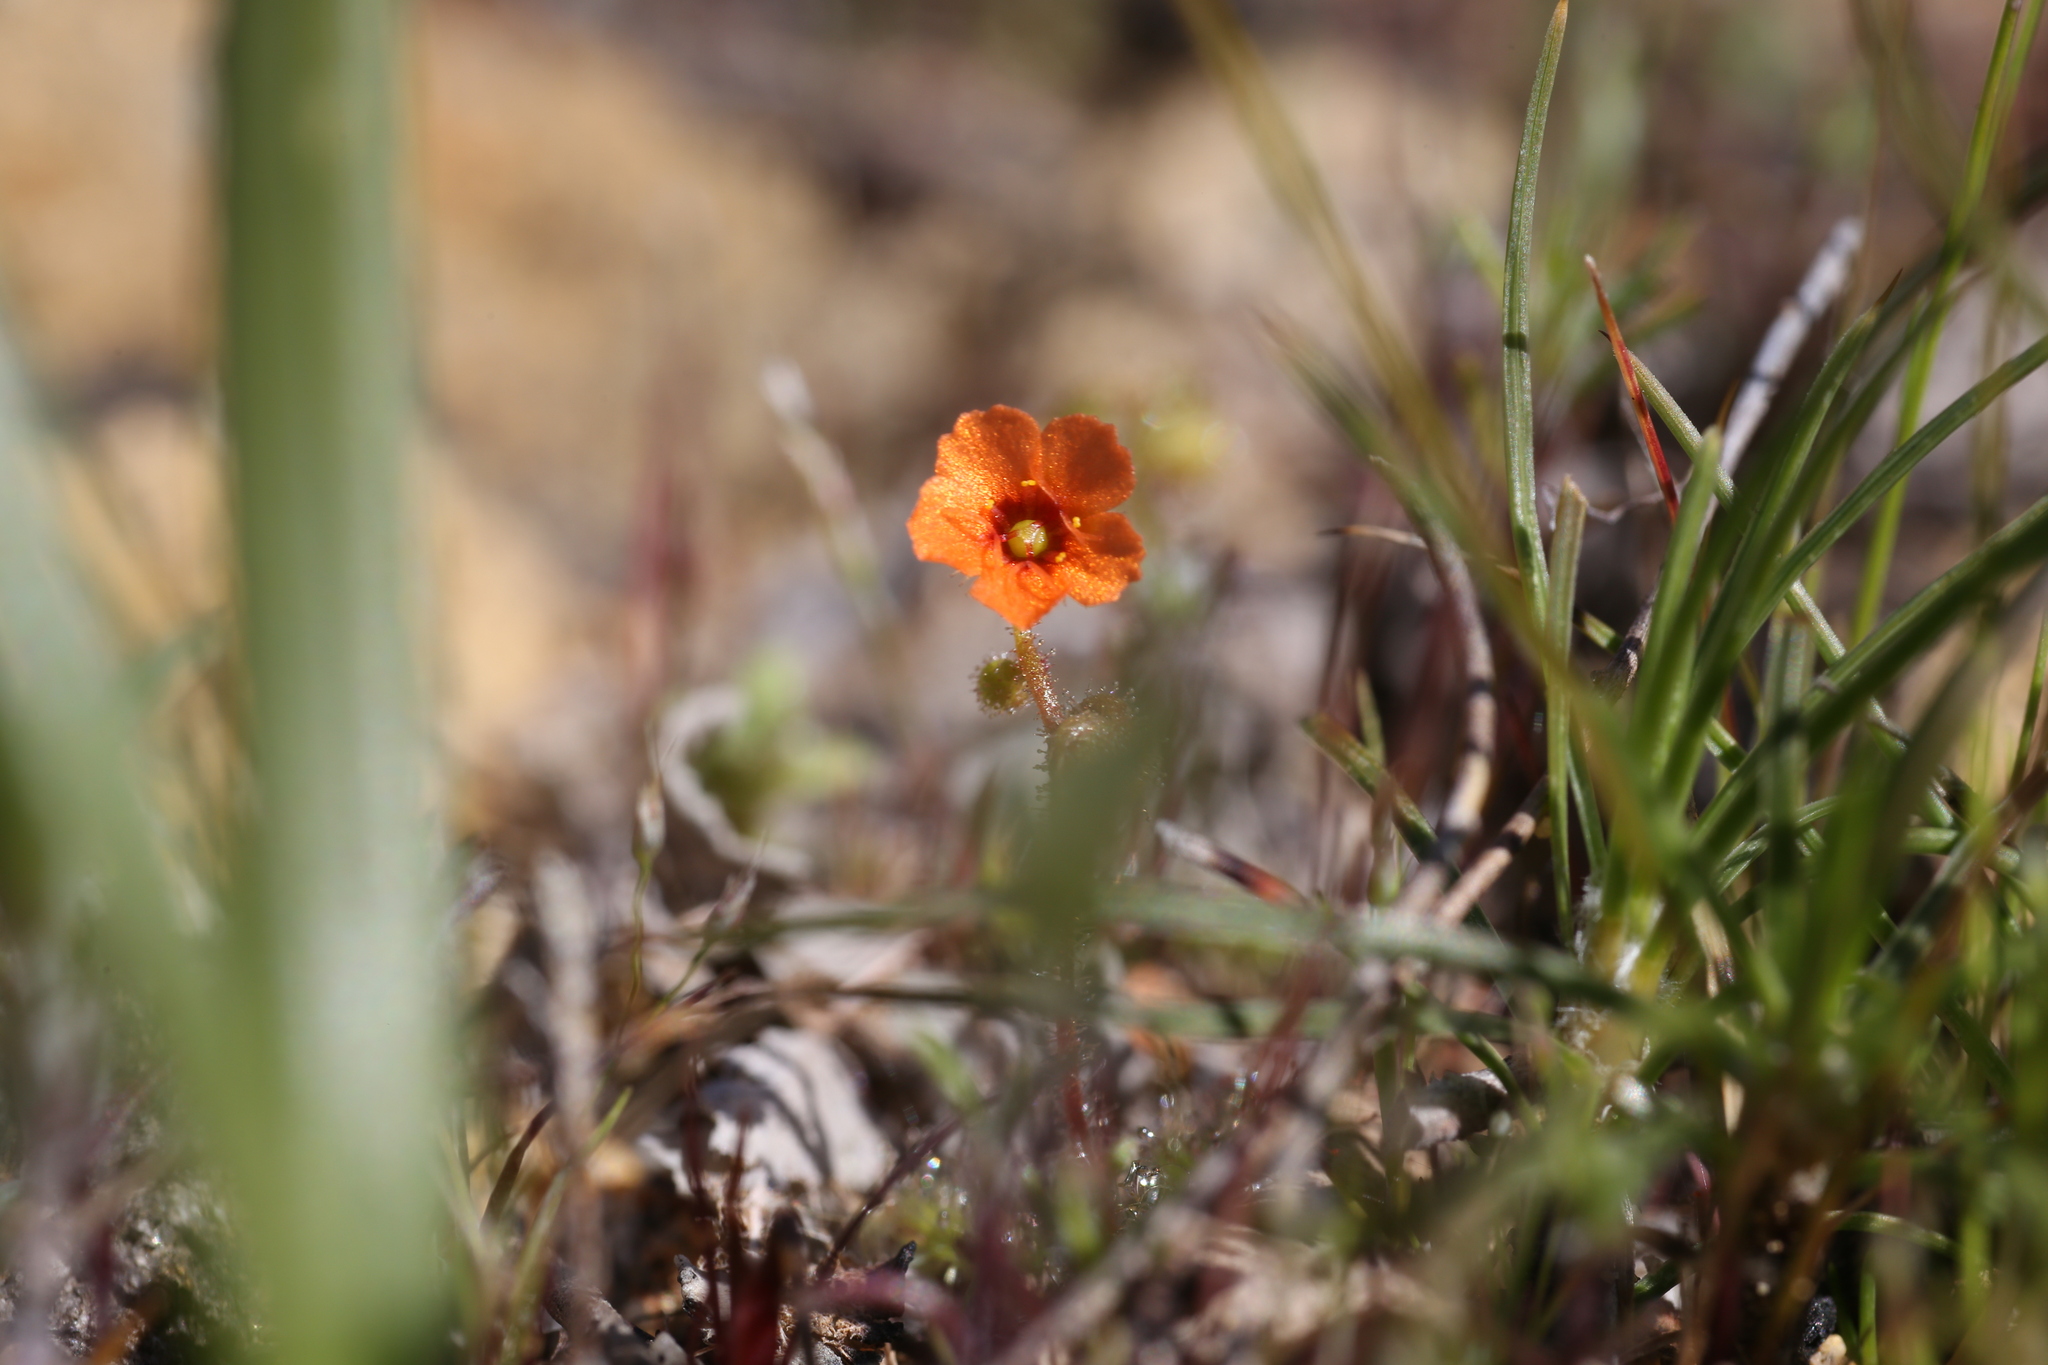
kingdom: Plantae
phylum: Tracheophyta
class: Magnoliopsida
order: Caryophyllales
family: Droseraceae
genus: Drosera
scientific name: Drosera glanduligera
